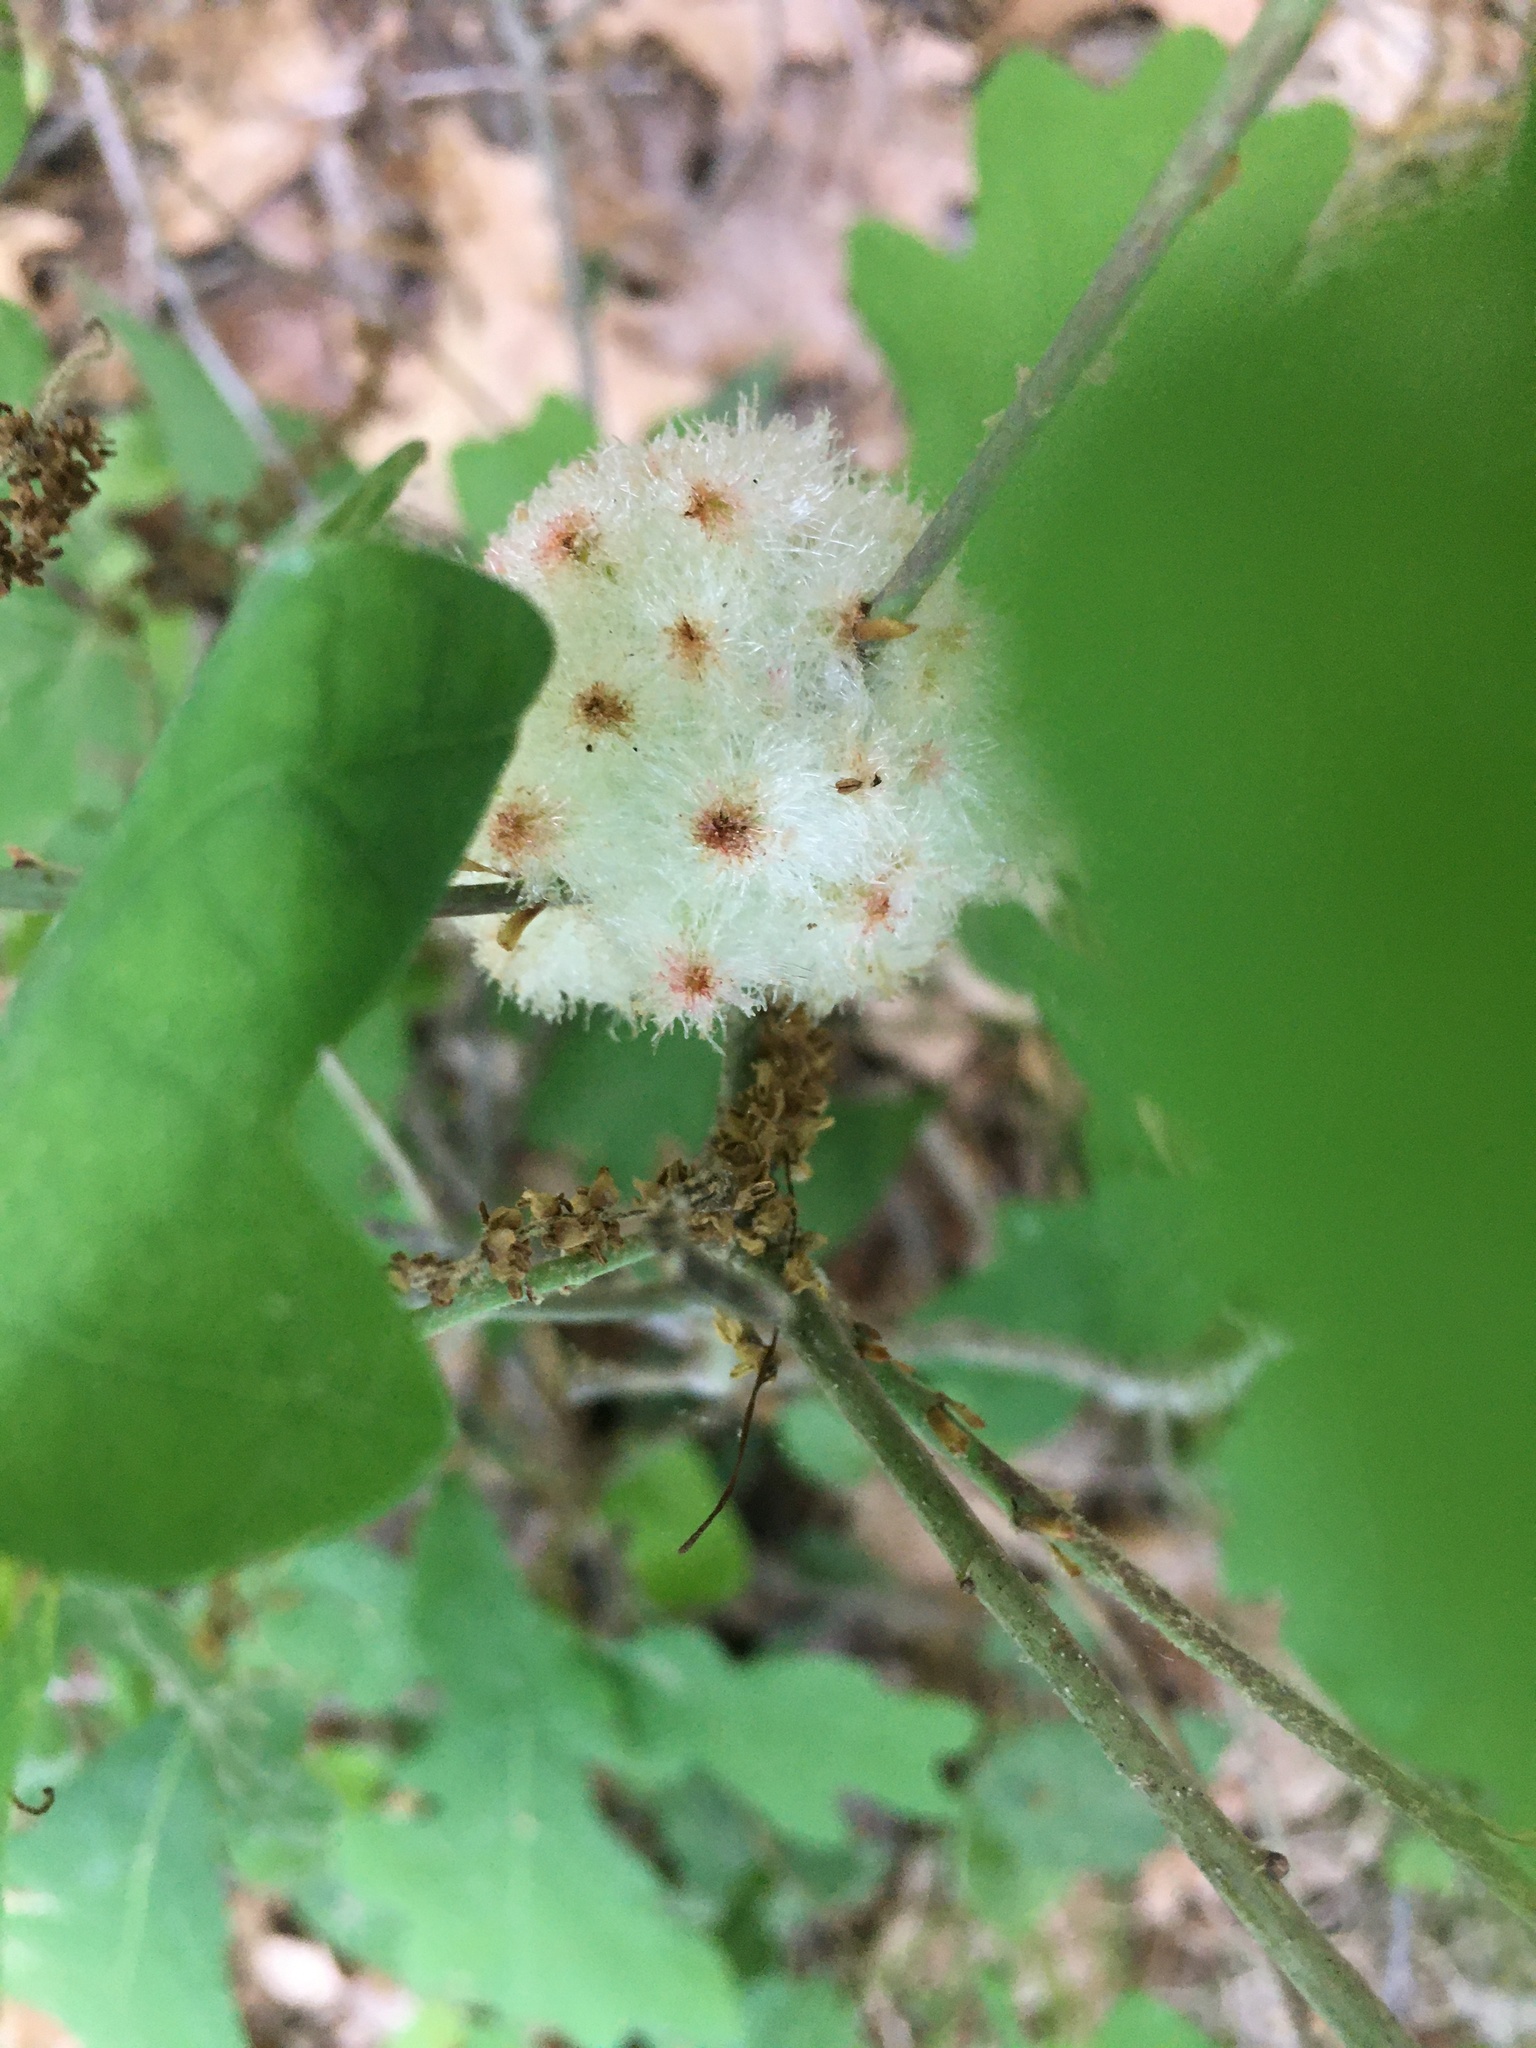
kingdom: Animalia
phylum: Arthropoda
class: Insecta
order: Hymenoptera
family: Cynipidae
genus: Callirhytis
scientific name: Callirhytis
